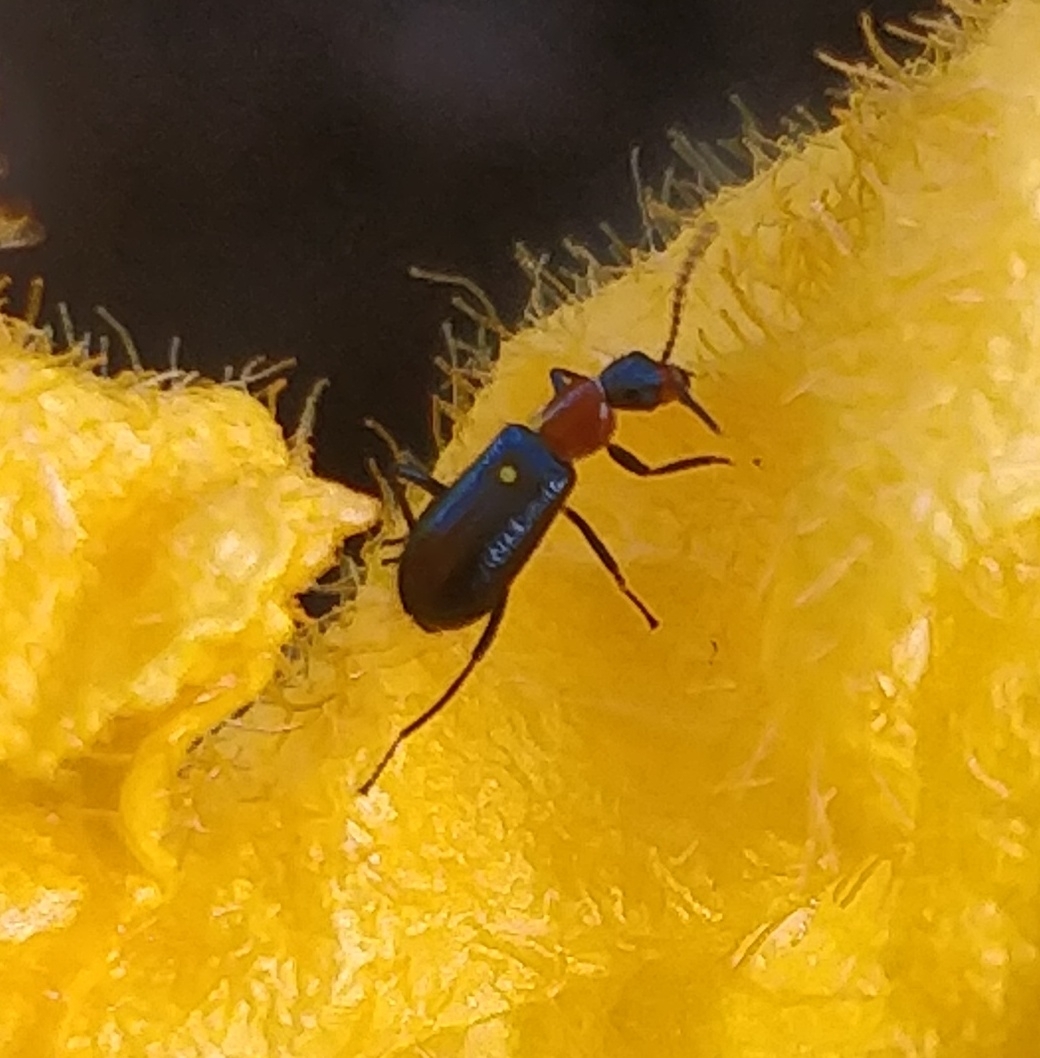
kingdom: Animalia
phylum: Arthropoda
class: Insecta
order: Coleoptera
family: Malachiidae
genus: Attalus
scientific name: Attalus ruficollis
